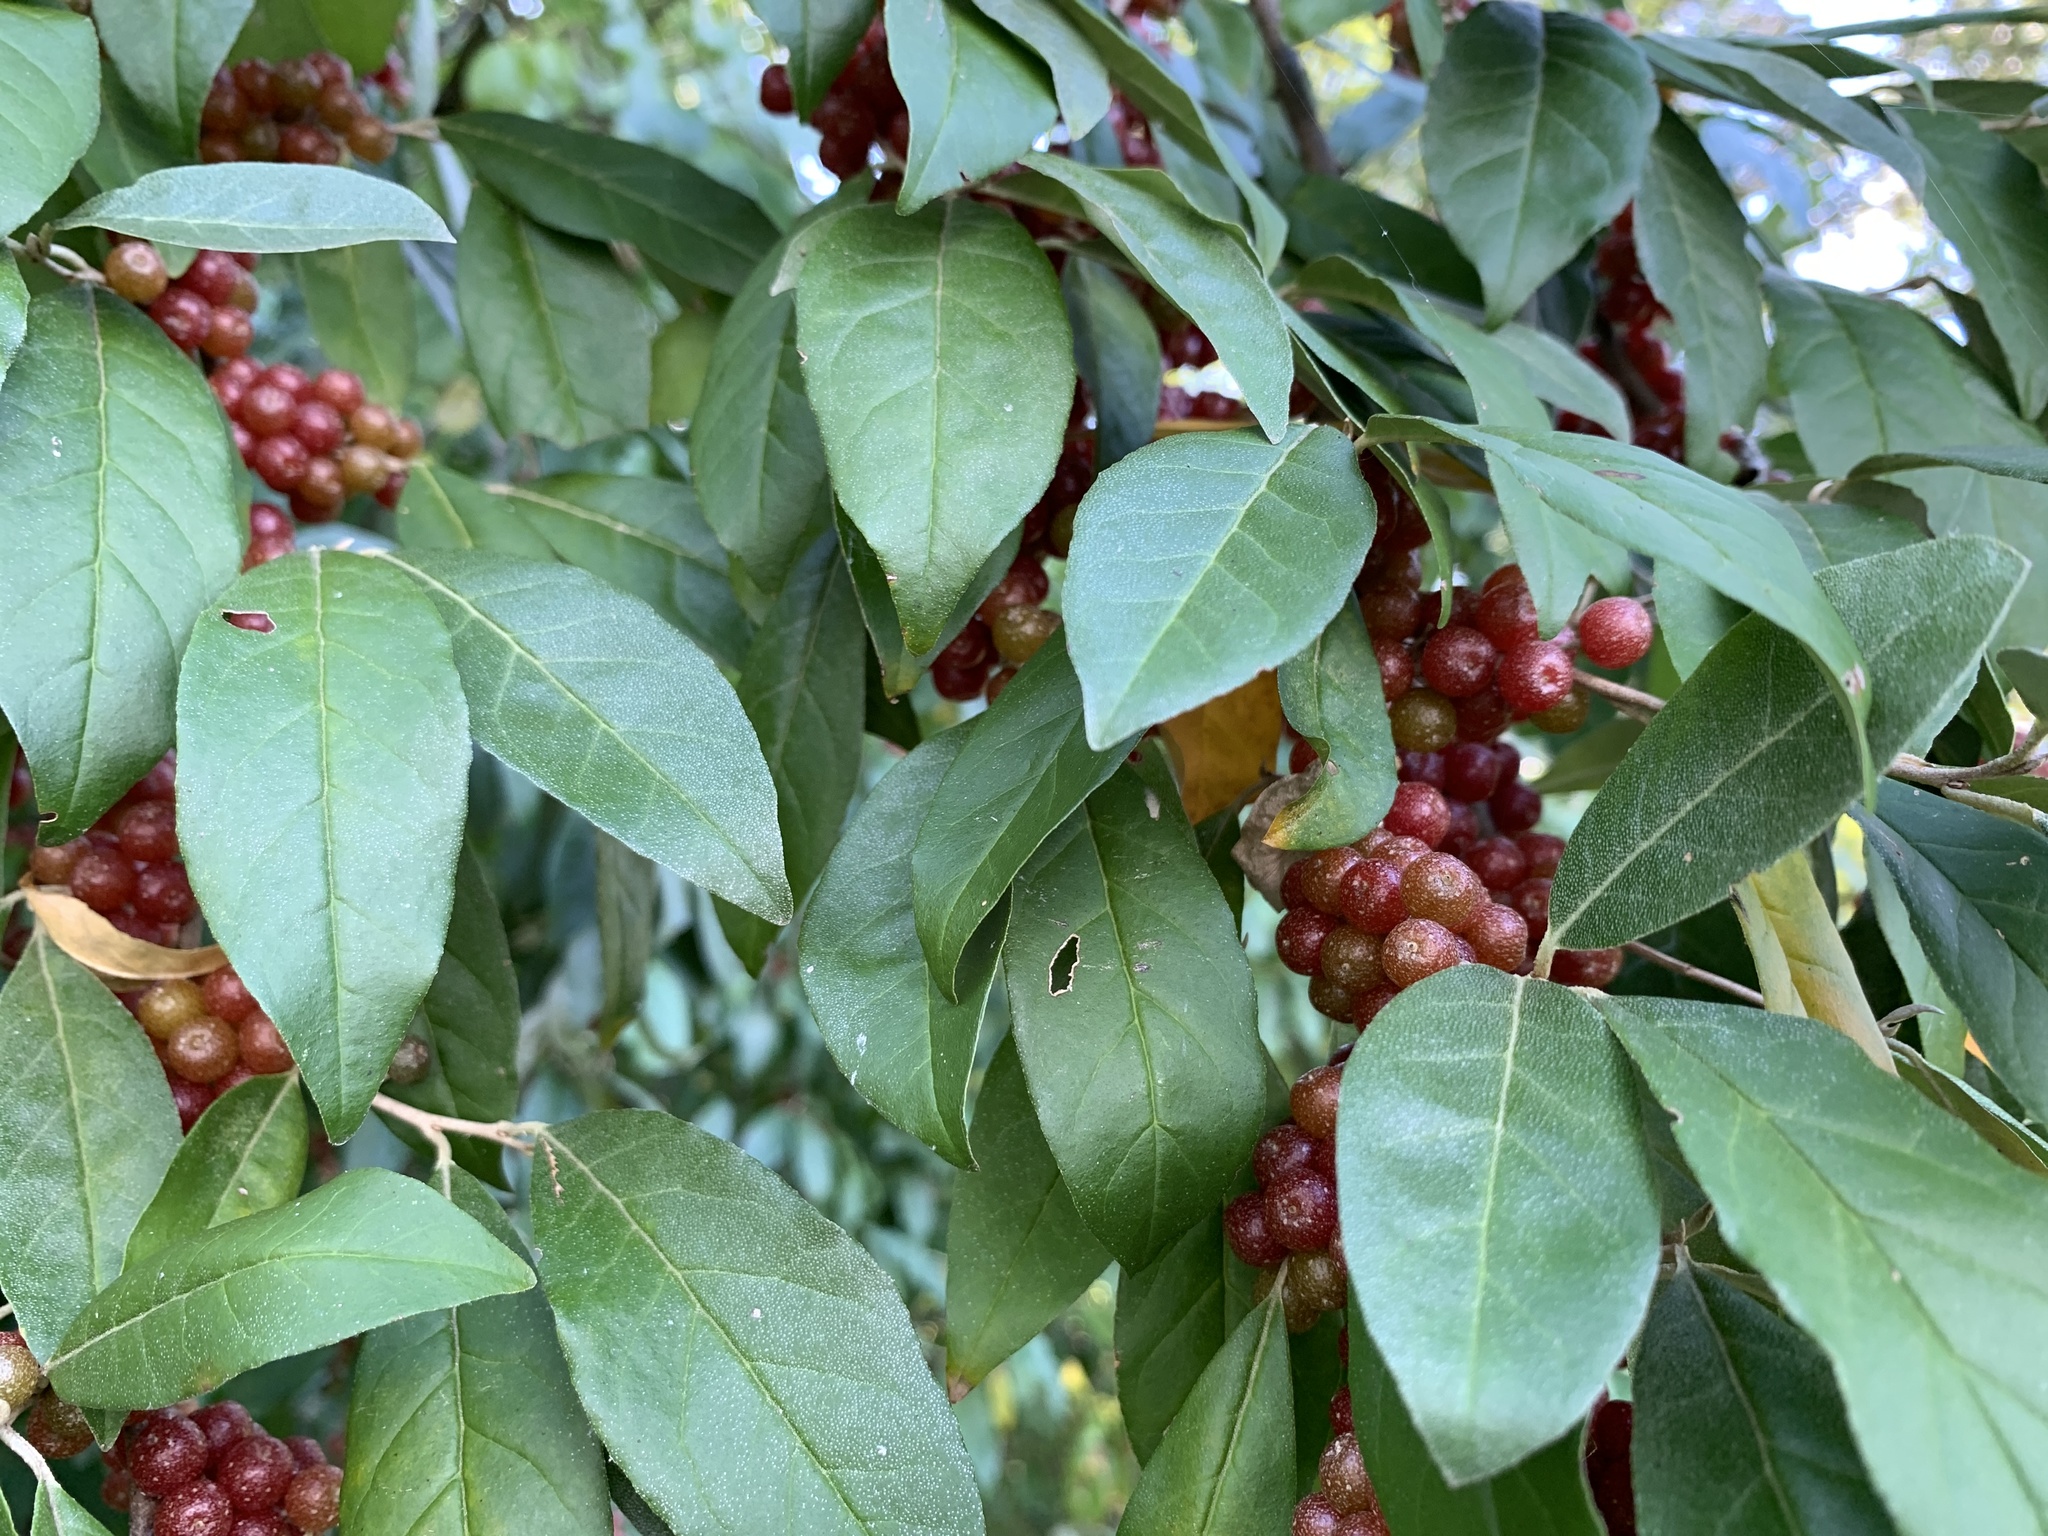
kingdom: Plantae
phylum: Tracheophyta
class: Magnoliopsida
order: Rosales
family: Elaeagnaceae
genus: Elaeagnus
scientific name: Elaeagnus umbellata
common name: Autumn olive
